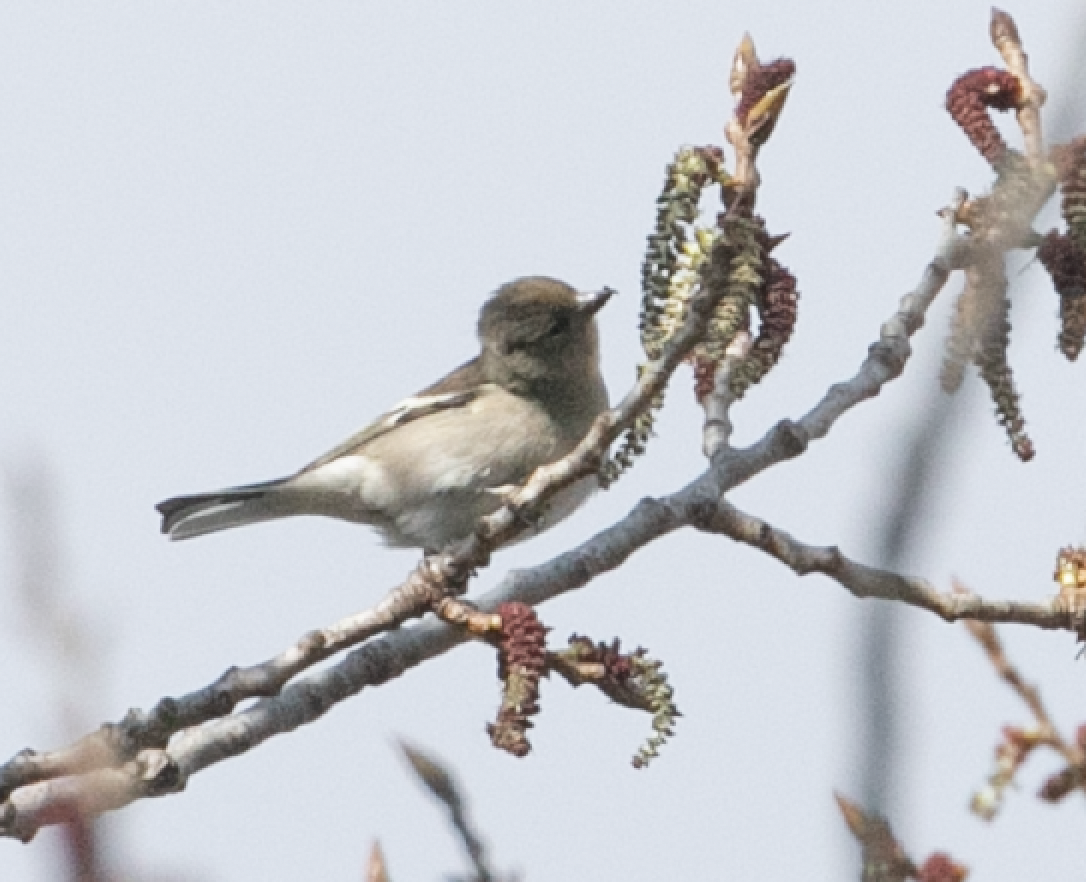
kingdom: Animalia
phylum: Chordata
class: Aves
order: Passeriformes
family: Fringillidae
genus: Fringilla
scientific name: Fringilla coelebs
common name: Common chaffinch
